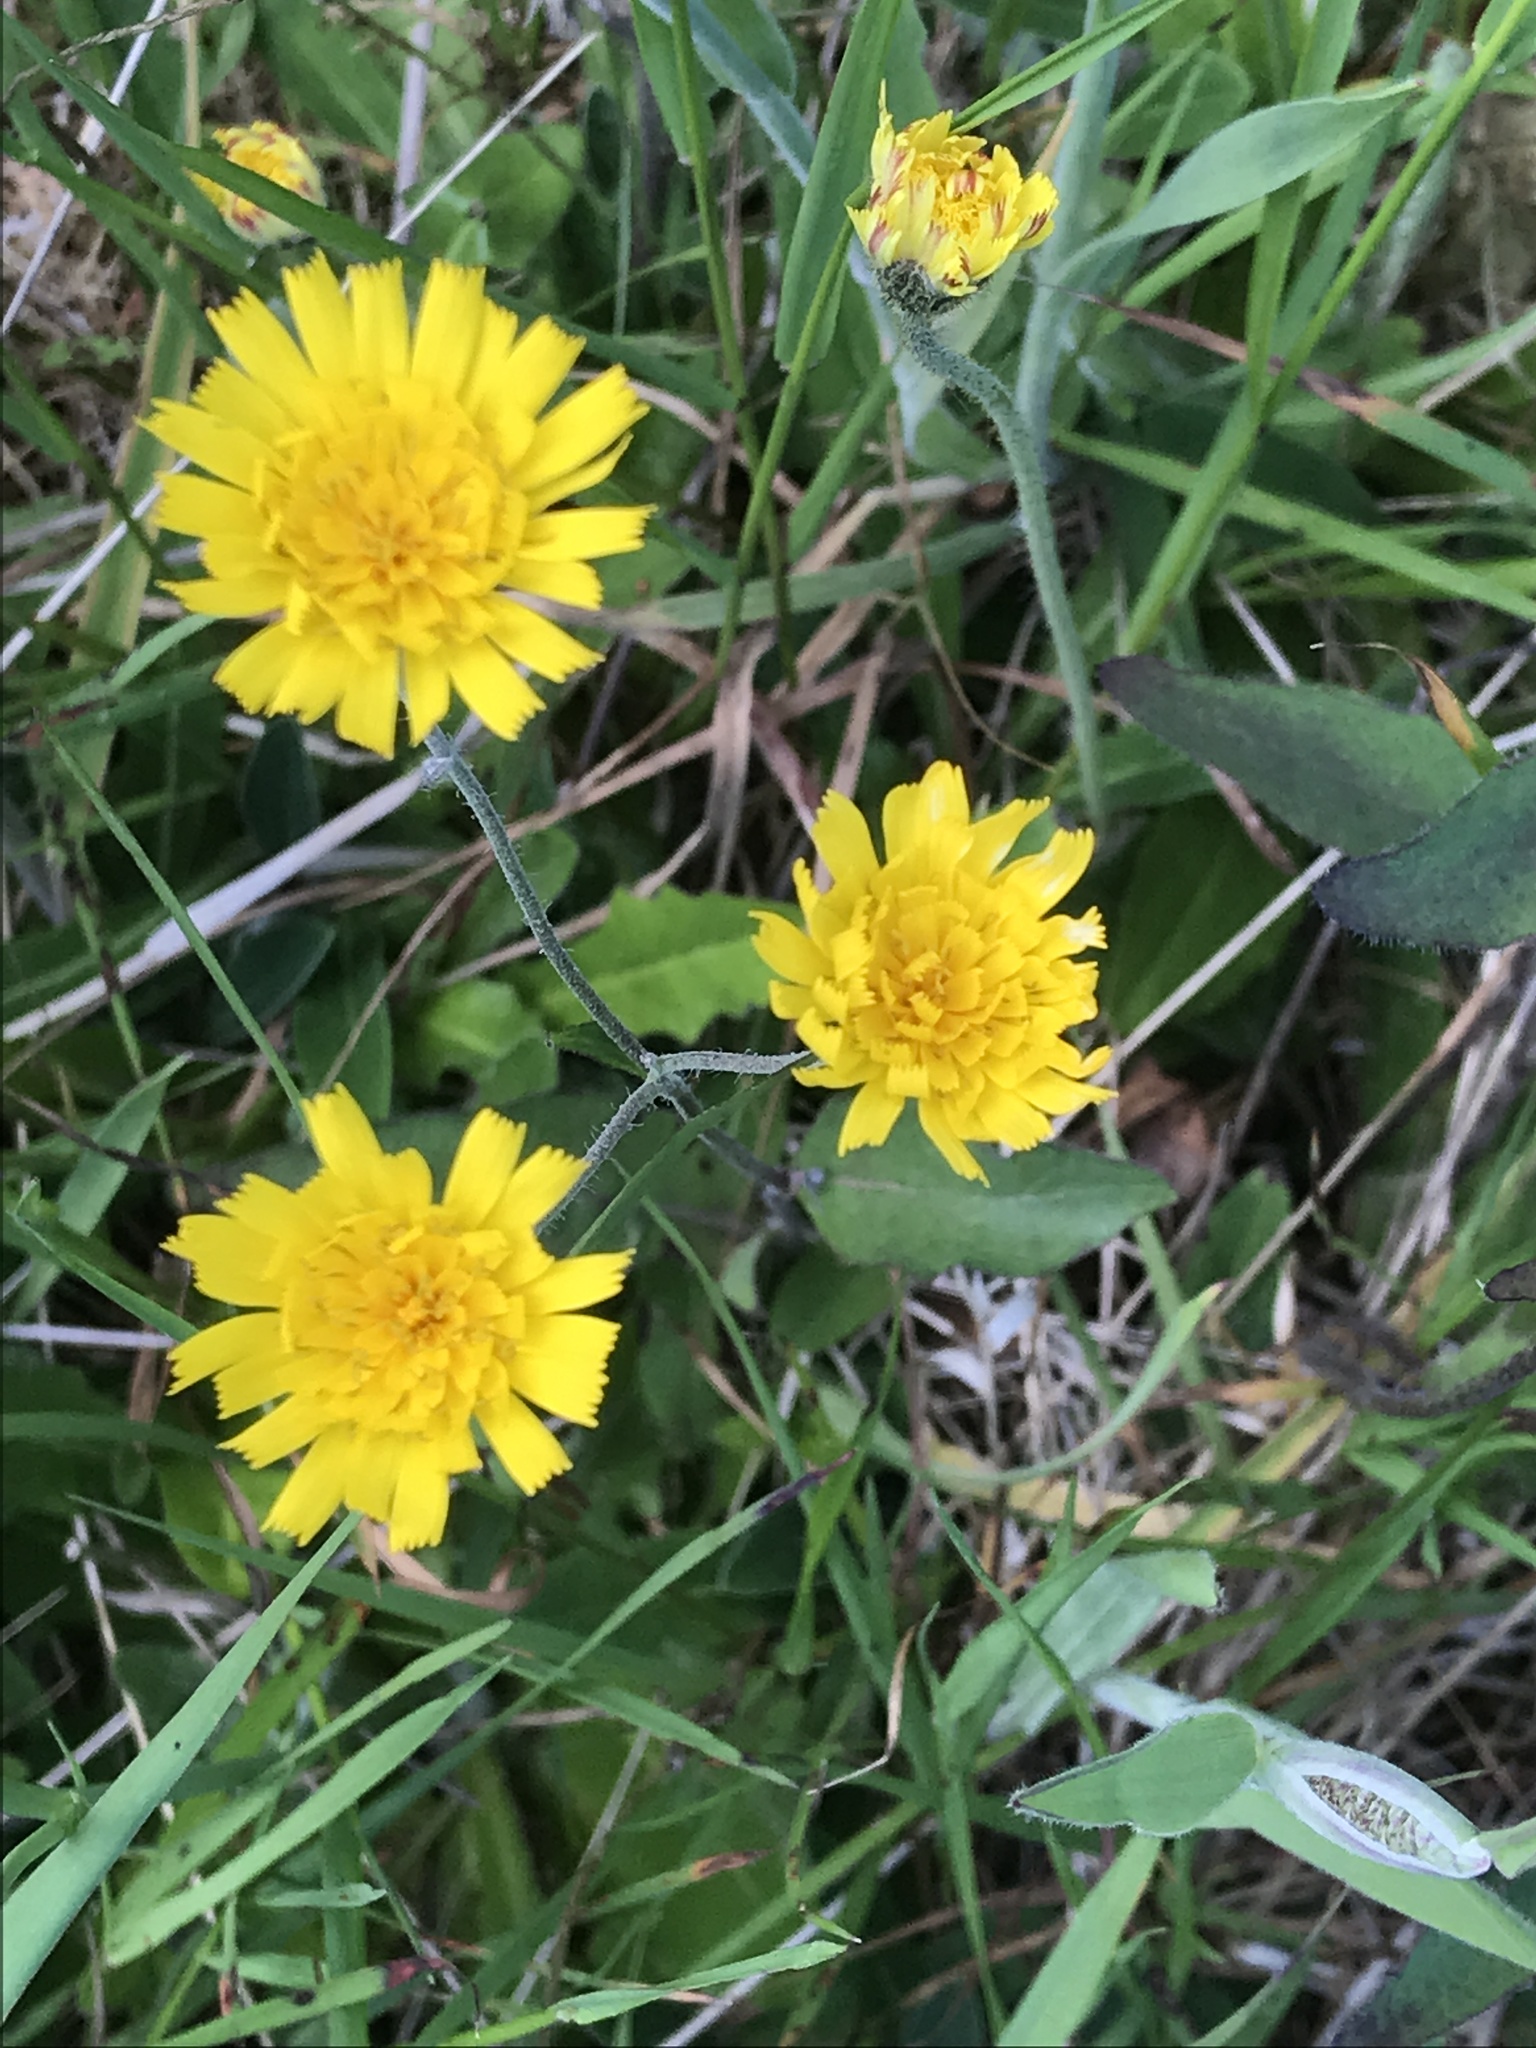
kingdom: Plantae
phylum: Tracheophyta
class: Magnoliopsida
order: Asterales
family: Asteraceae
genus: Hieracium
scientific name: Hieracium lepidulum
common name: Irregular-toothed hawkweed
